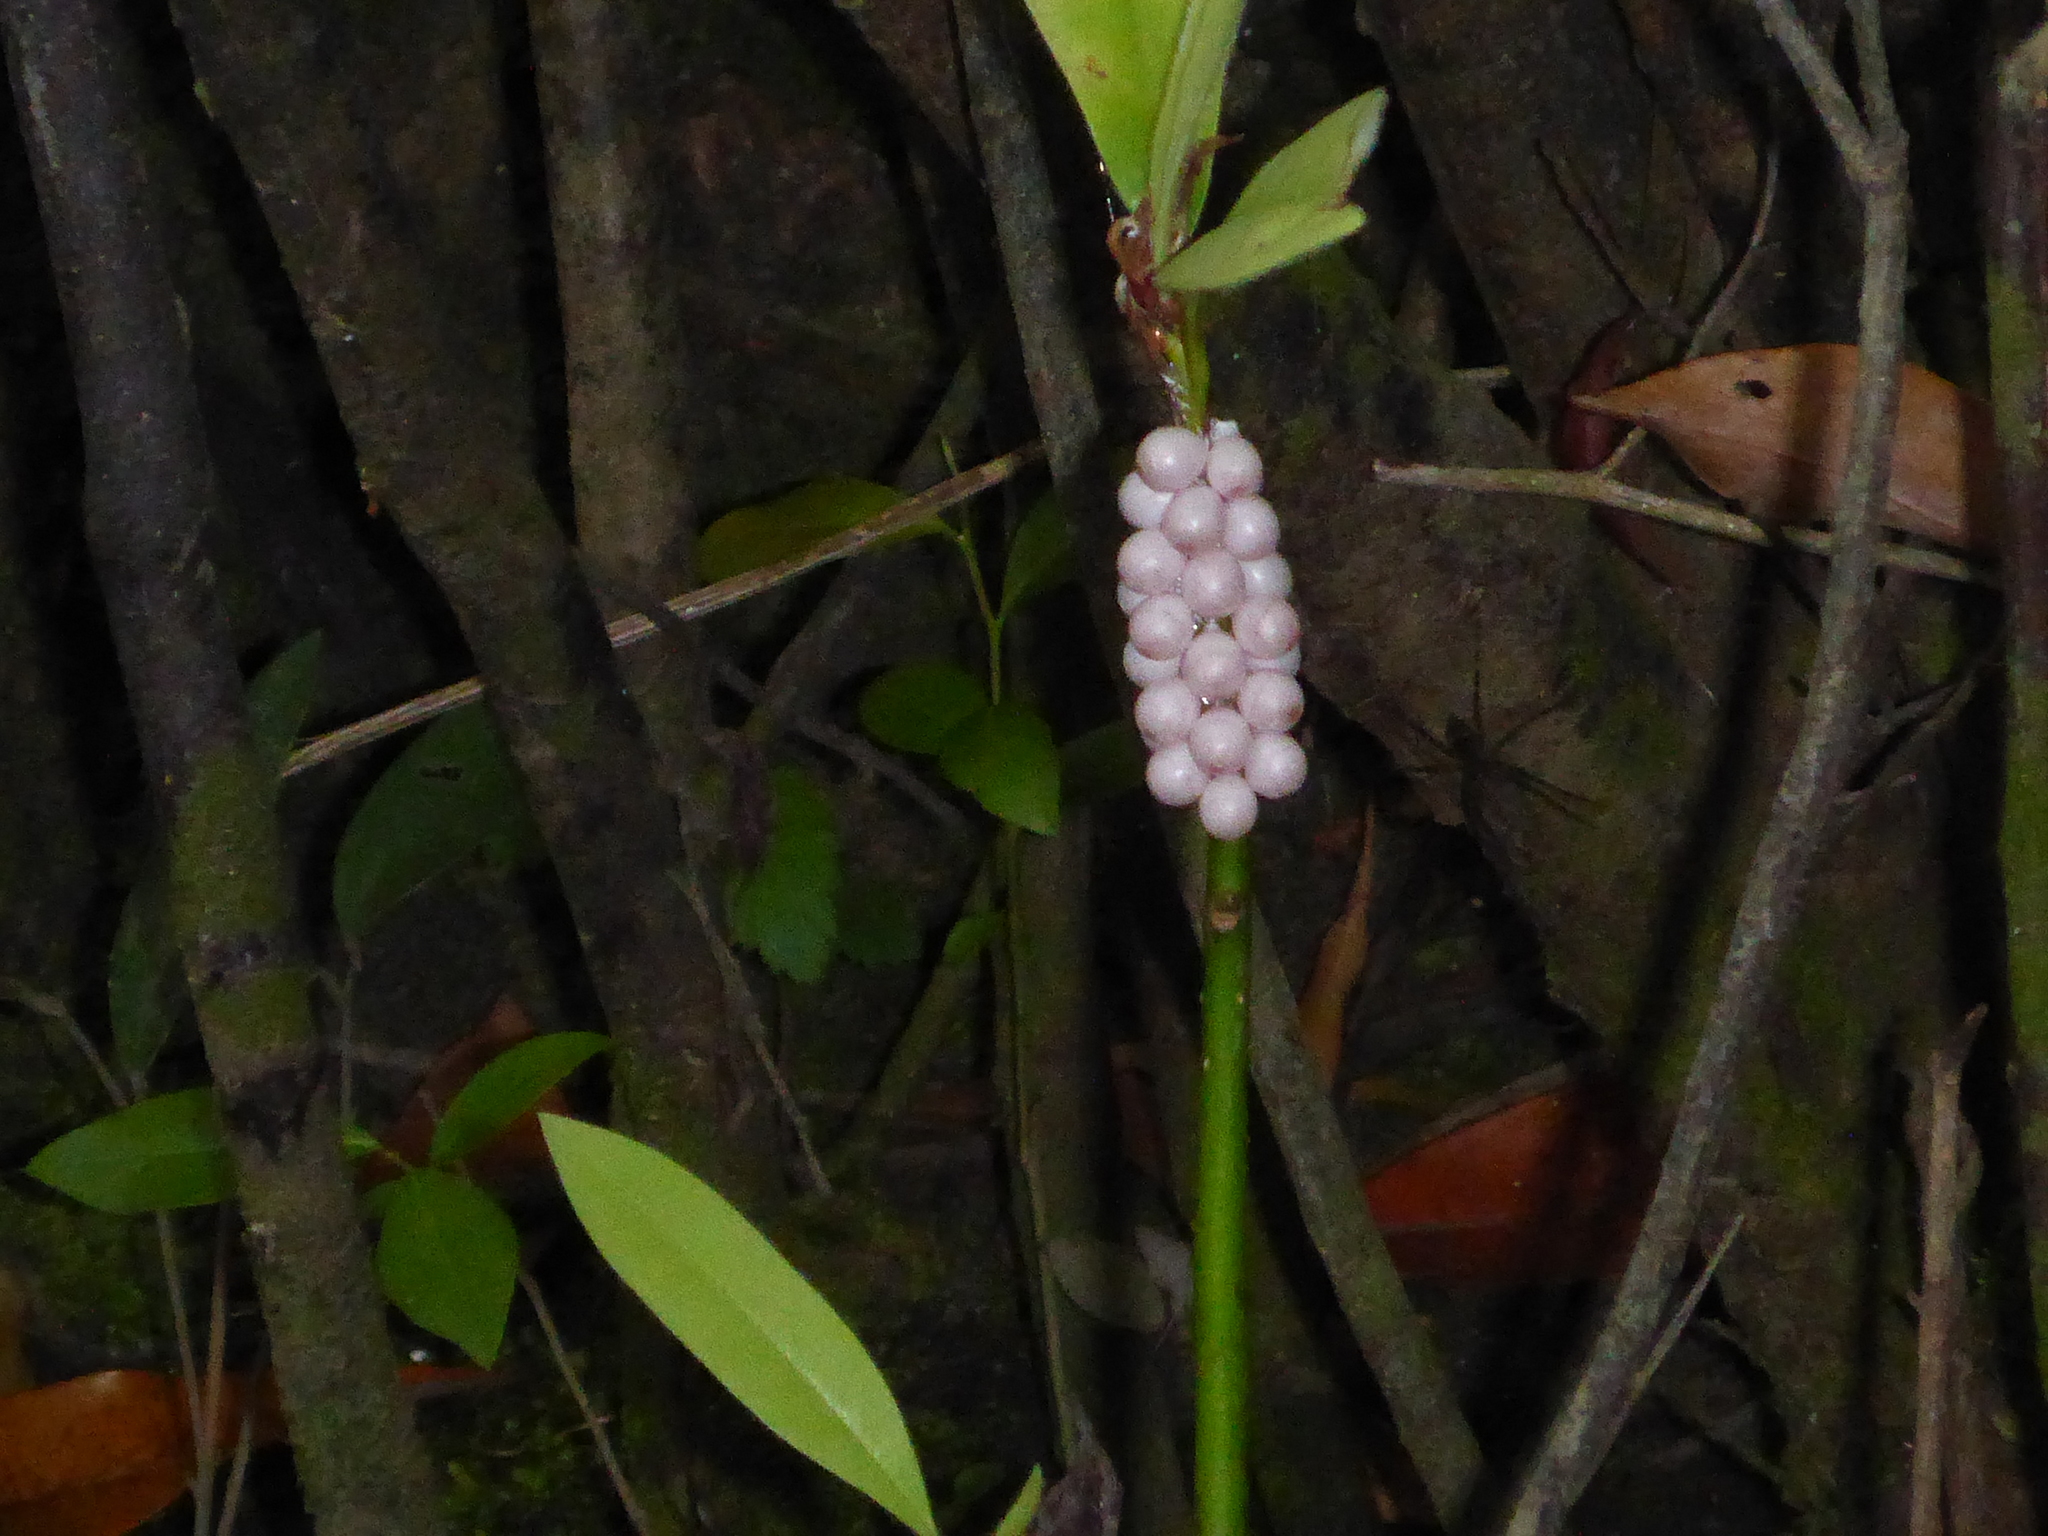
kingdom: Animalia
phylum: Mollusca
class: Gastropoda
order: Architaenioglossa
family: Ampullariidae
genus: Pomacea
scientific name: Pomacea paludosa
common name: Florida applesnail
